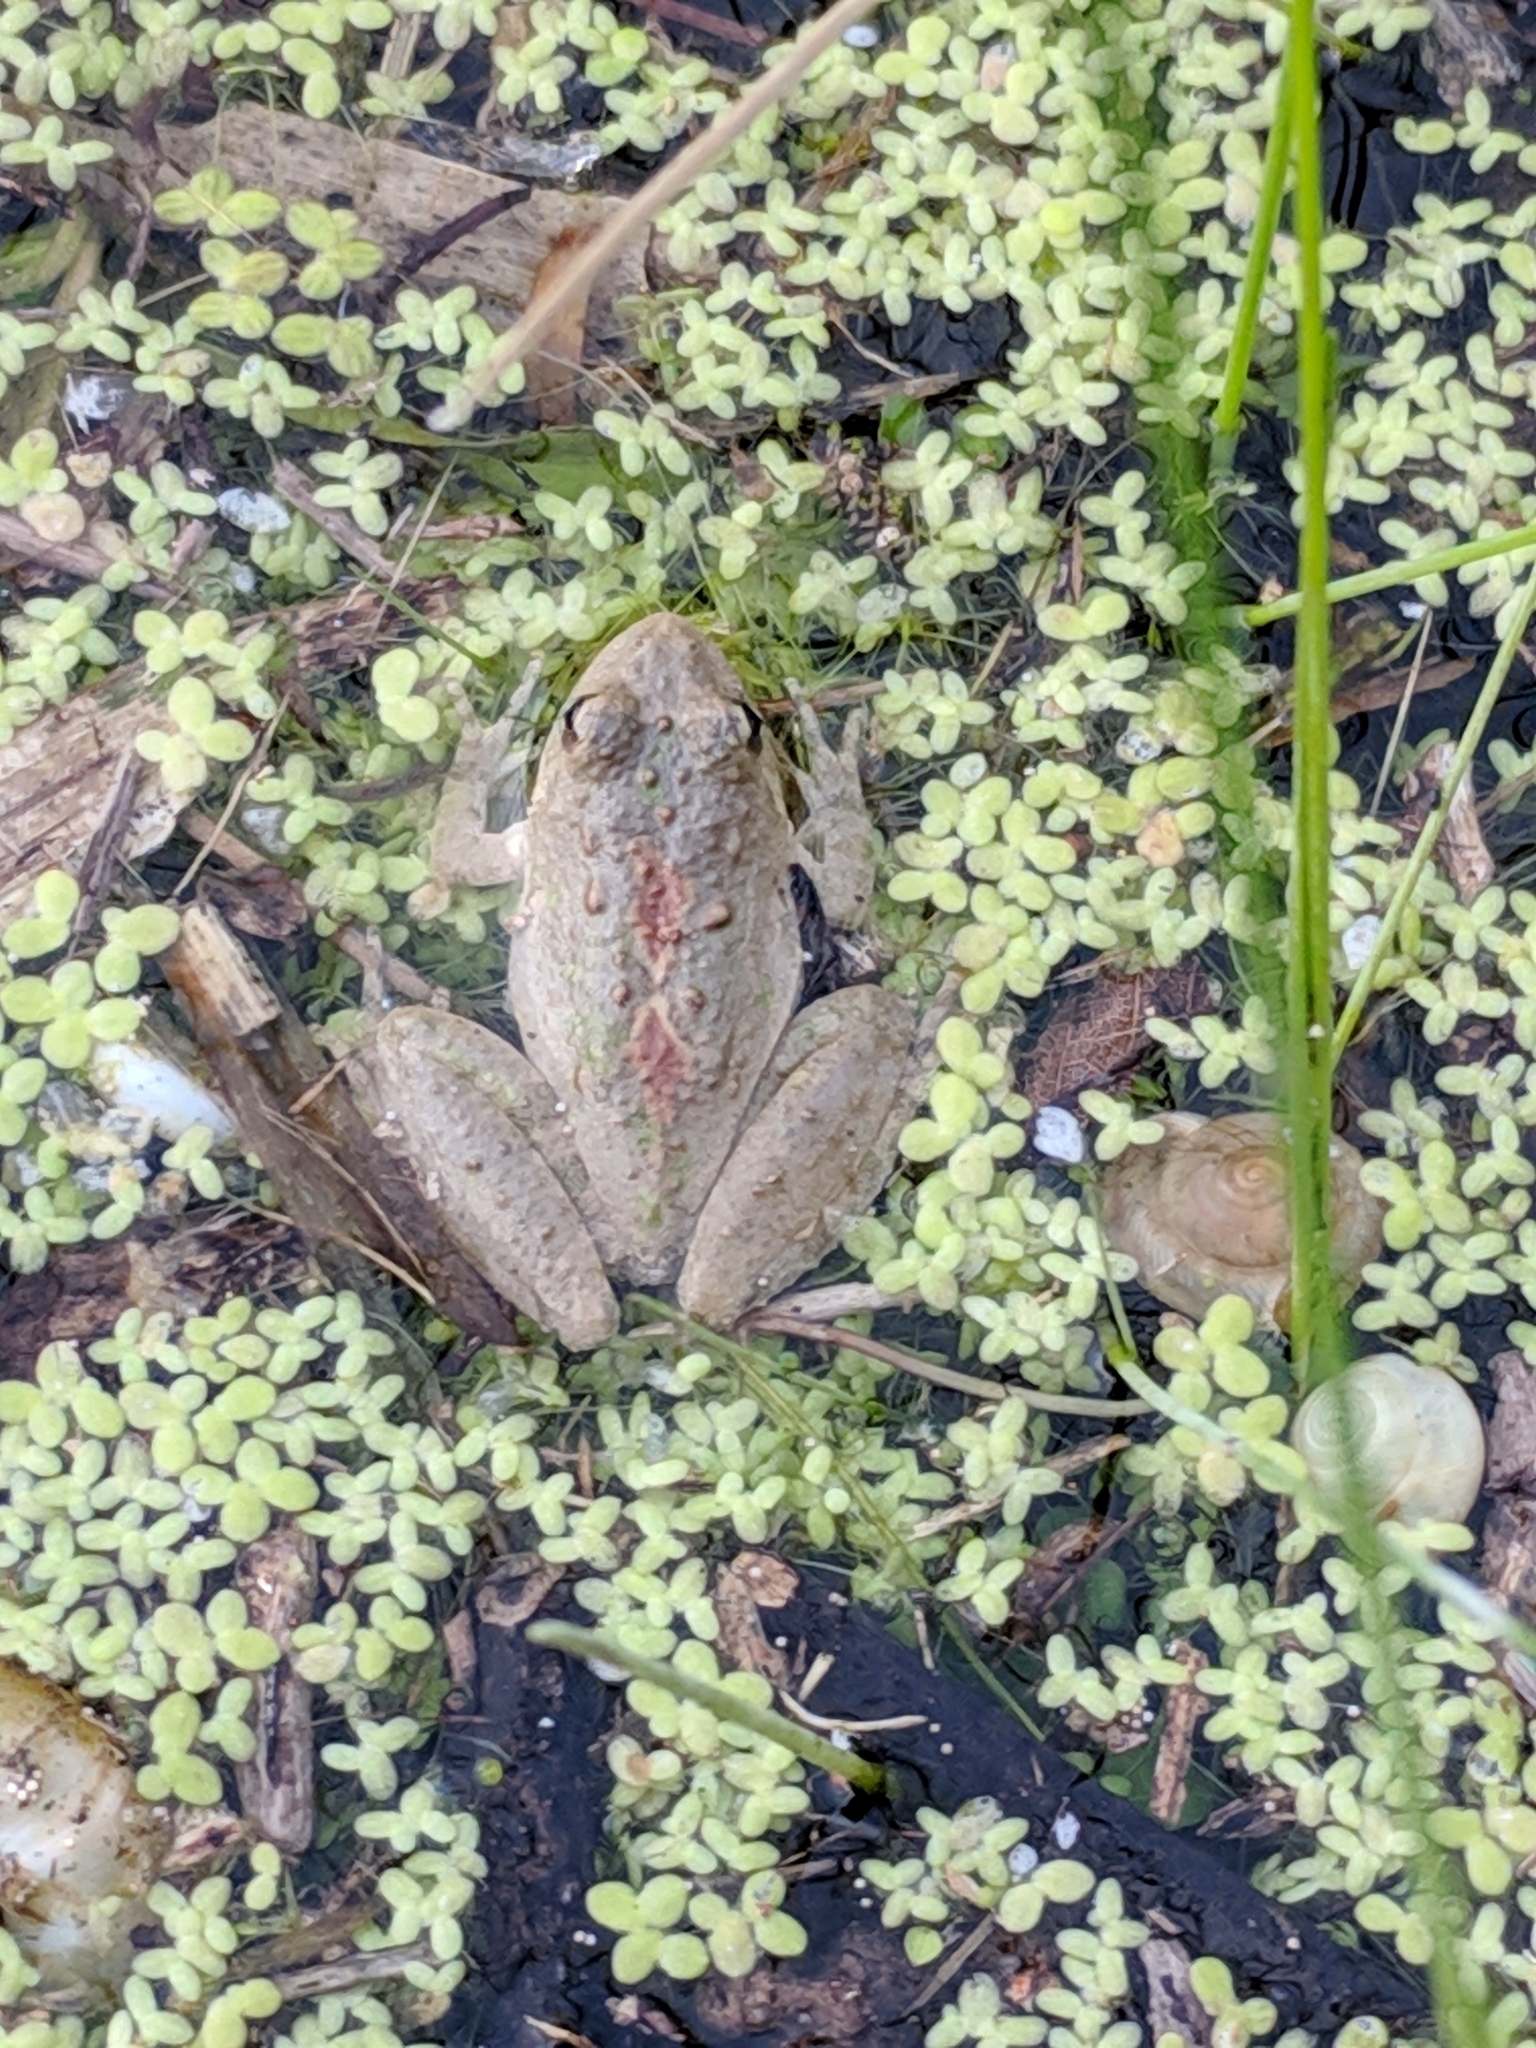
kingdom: Animalia
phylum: Chordata
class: Amphibia
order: Anura
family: Hylidae
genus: Acris
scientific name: Acris blanchardi
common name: Blanchard's cricket frog
